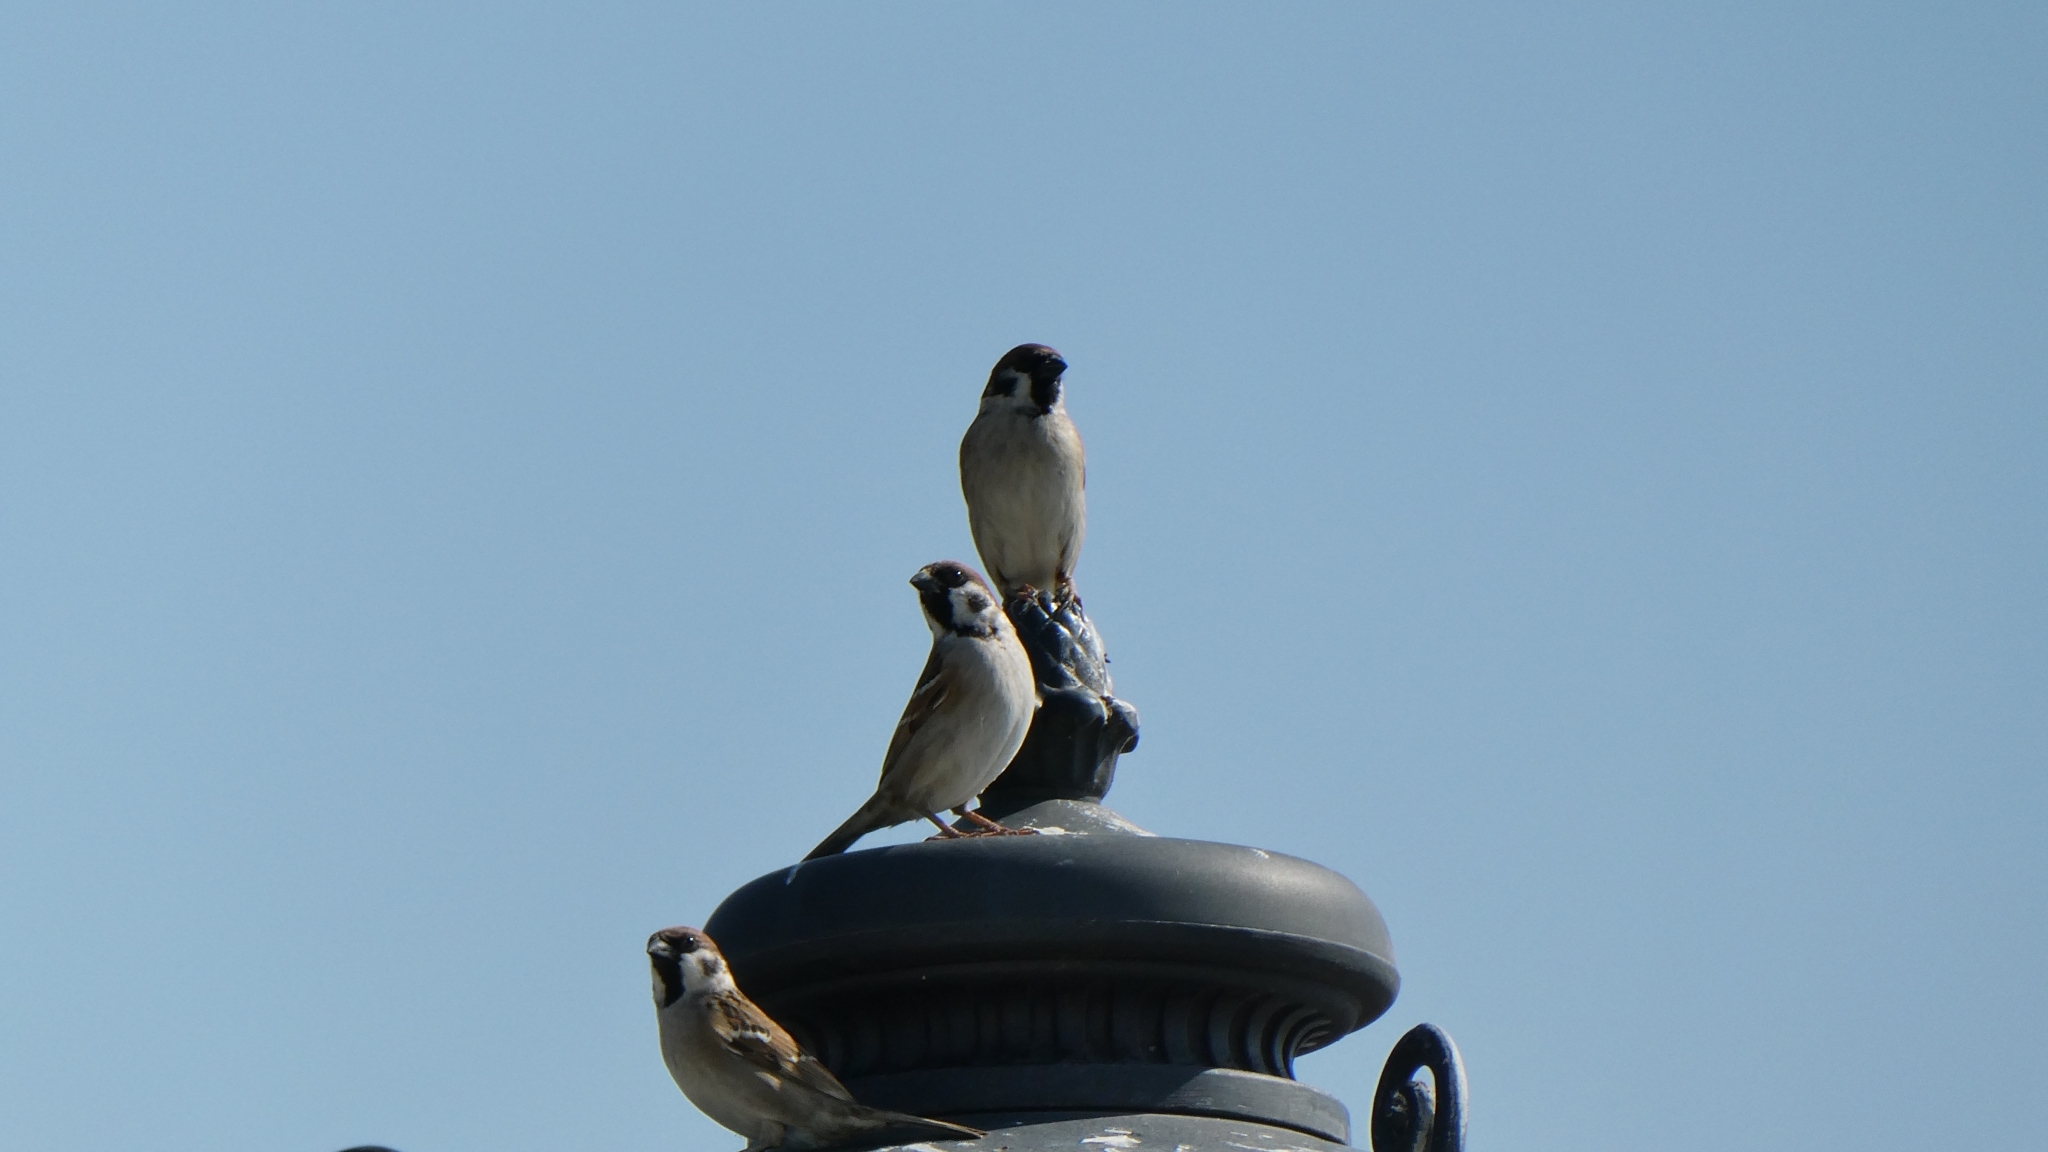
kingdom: Animalia
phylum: Chordata
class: Aves
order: Passeriformes
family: Passeridae
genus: Passer
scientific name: Passer montanus
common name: Eurasian tree sparrow
